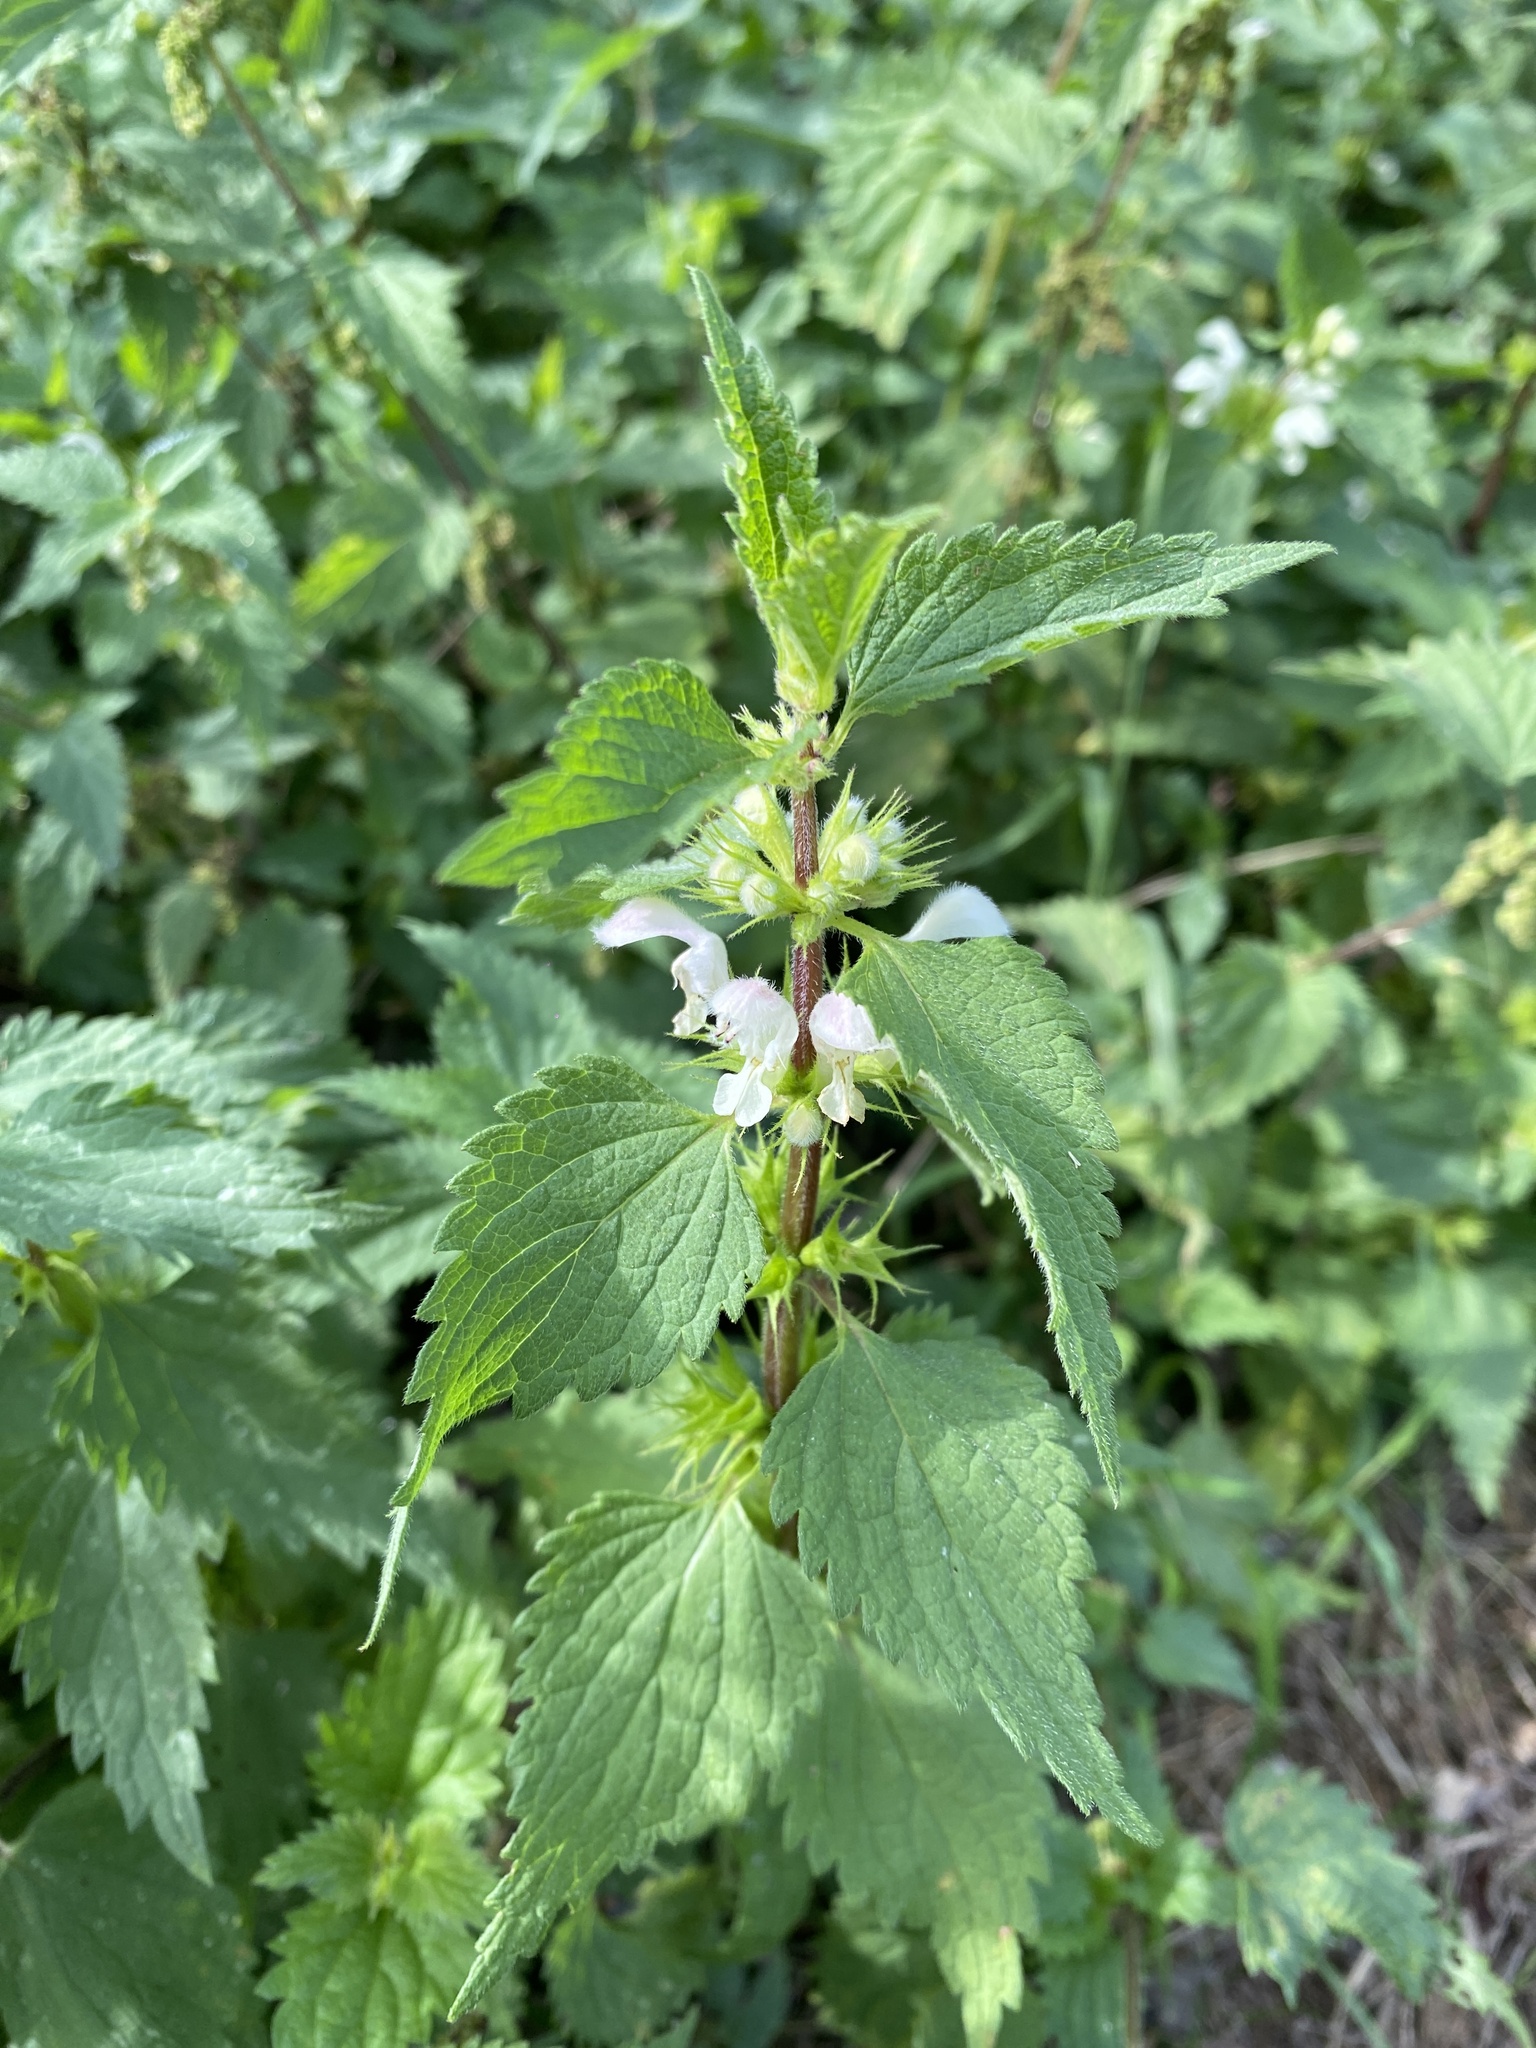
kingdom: Plantae
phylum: Tracheophyta
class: Magnoliopsida
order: Lamiales
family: Lamiaceae
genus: Lamium
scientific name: Lamium album
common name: White dead-nettle
